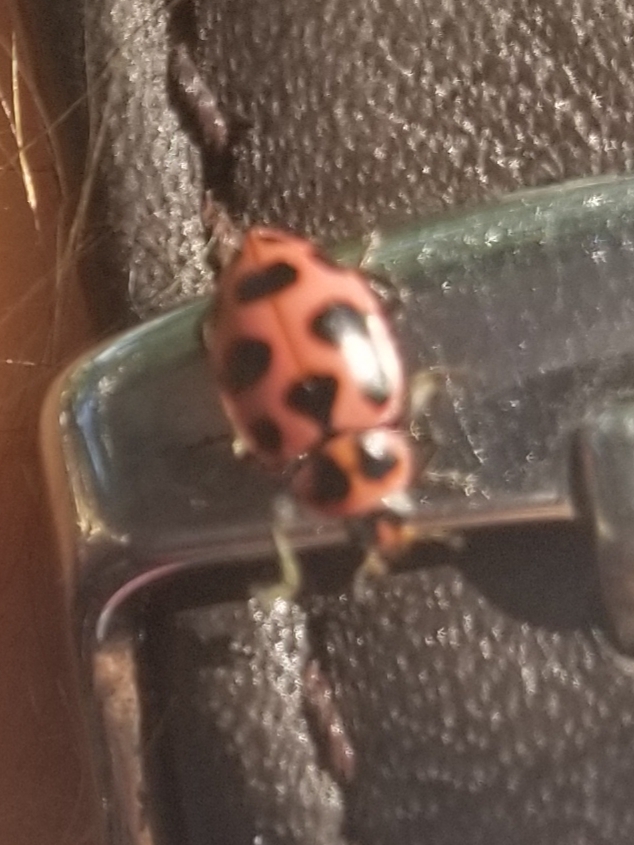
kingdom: Animalia
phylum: Arthropoda
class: Insecta
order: Coleoptera
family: Coccinellidae
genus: Coleomegilla
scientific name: Coleomegilla maculata
